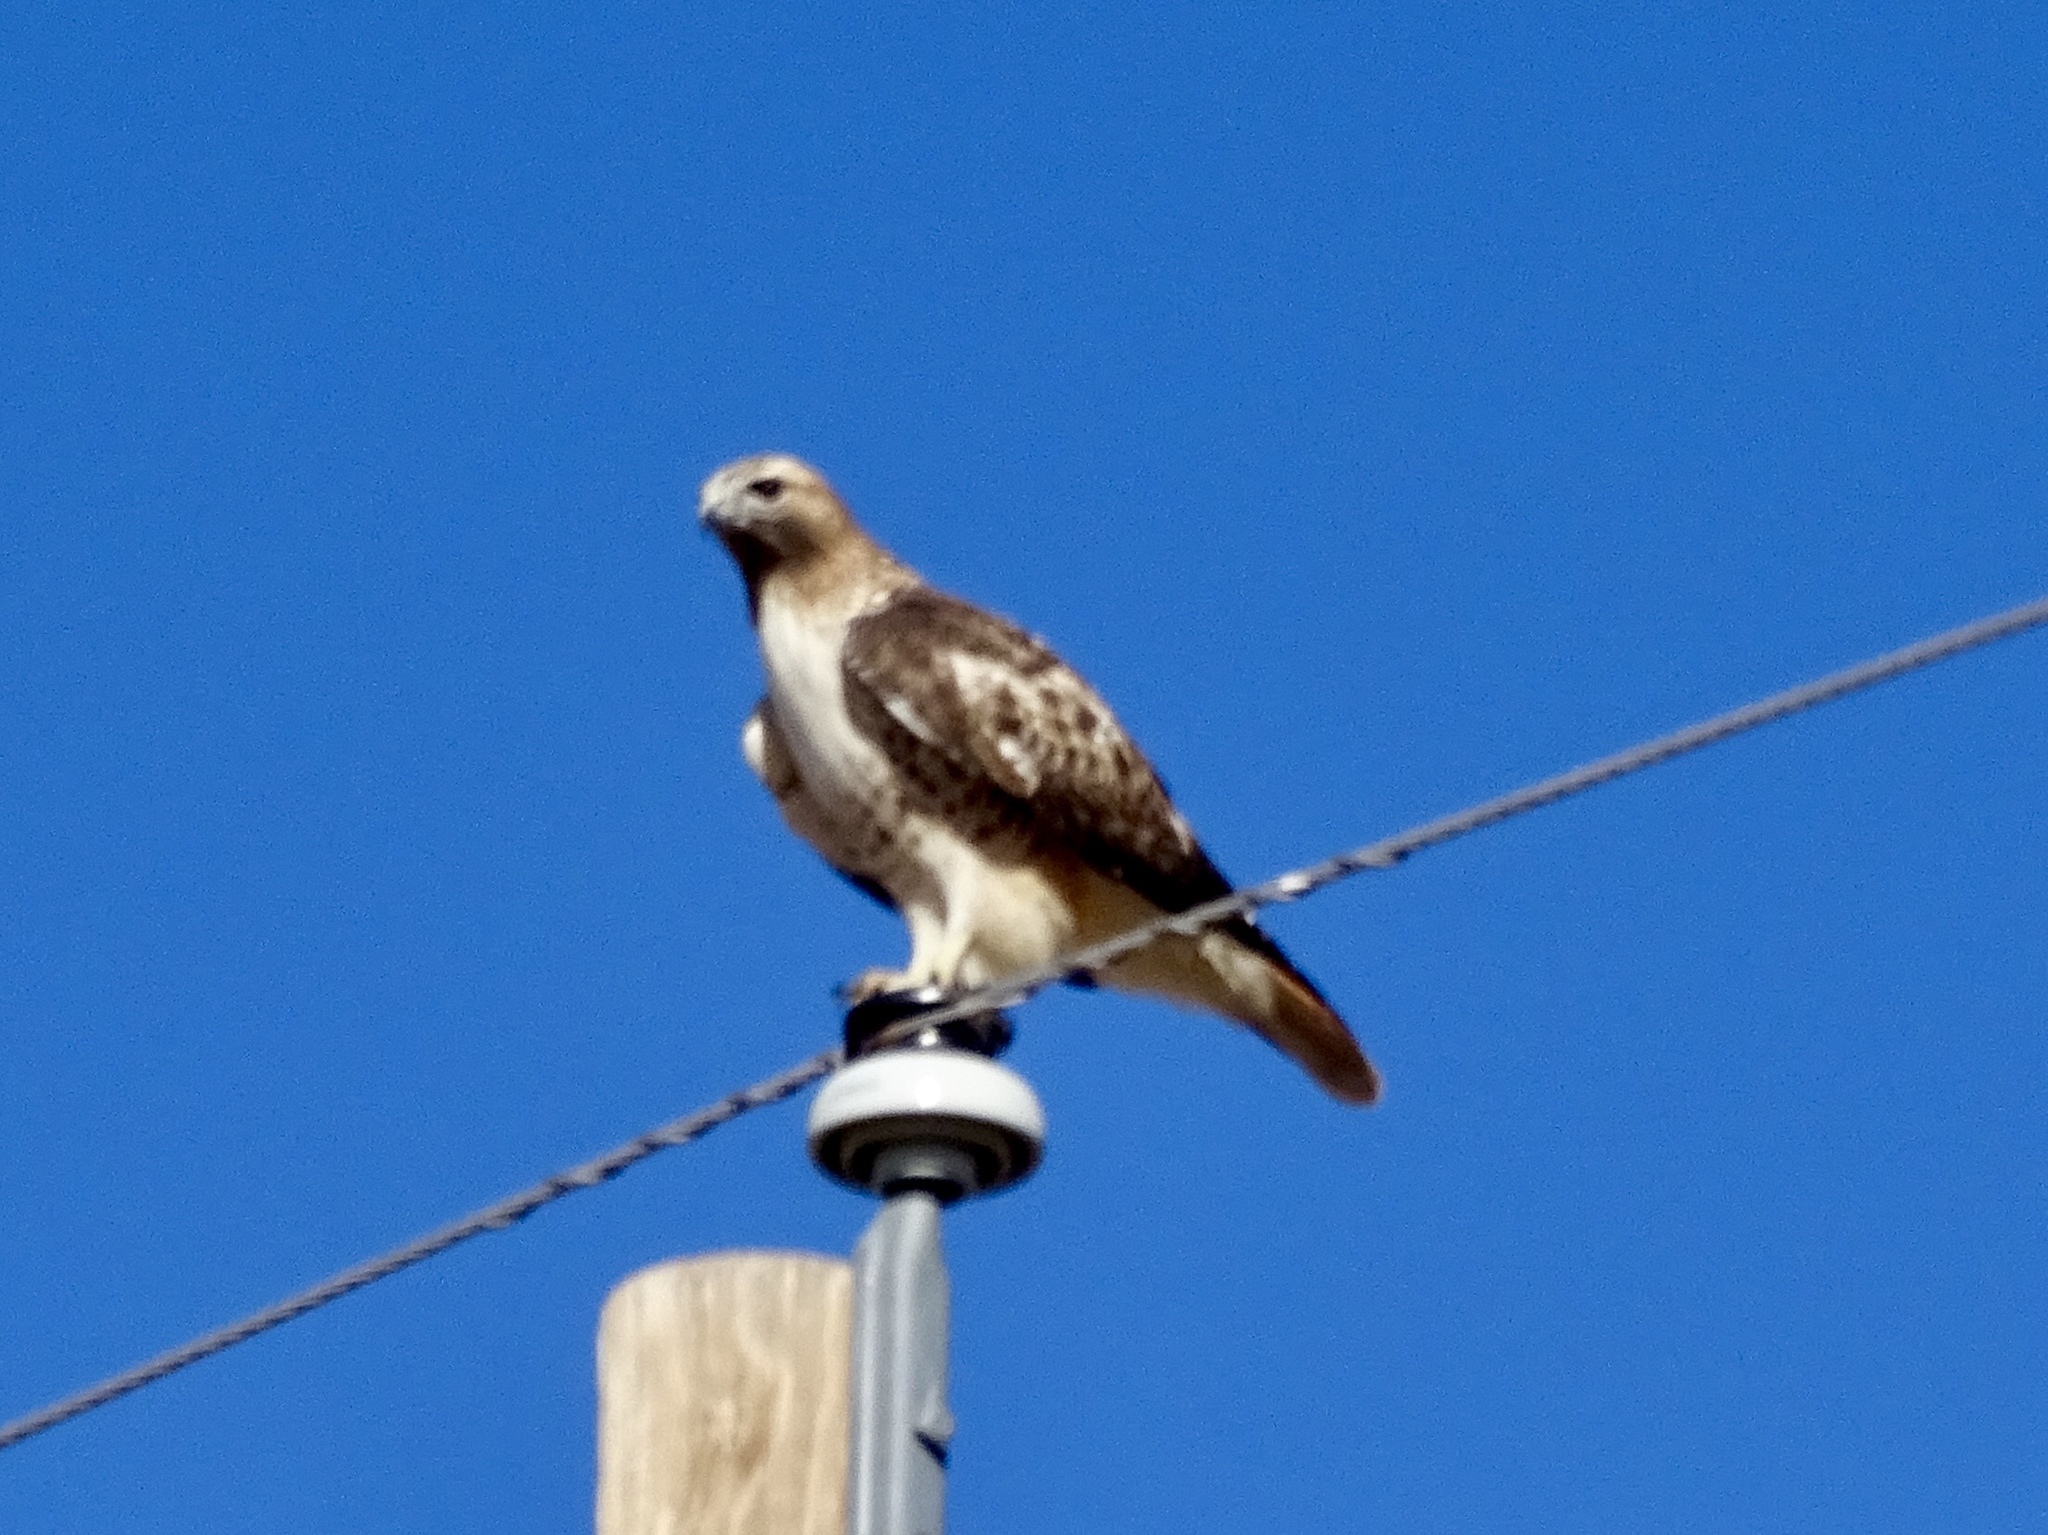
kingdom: Animalia
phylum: Chordata
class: Aves
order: Accipitriformes
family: Accipitridae
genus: Buteo
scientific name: Buteo jamaicensis
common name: Red-tailed hawk
